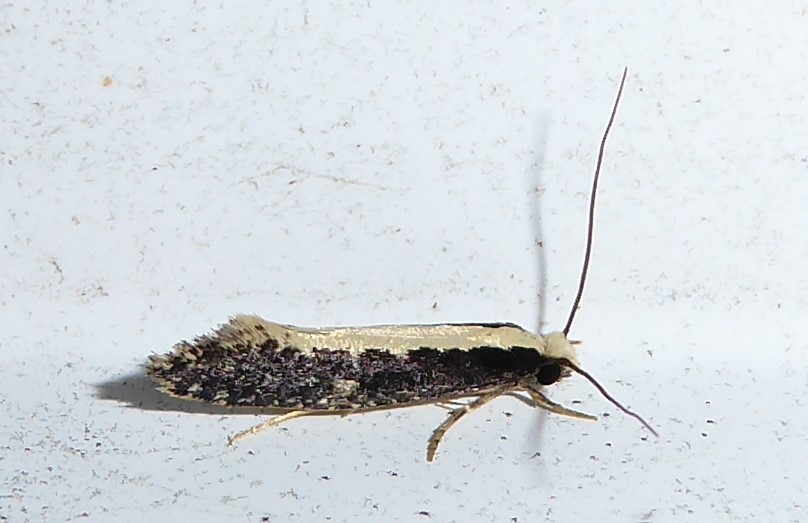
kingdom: Animalia
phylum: Arthropoda
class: Insecta
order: Lepidoptera
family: Tineidae
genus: Monopis
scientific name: Monopis ethelella
